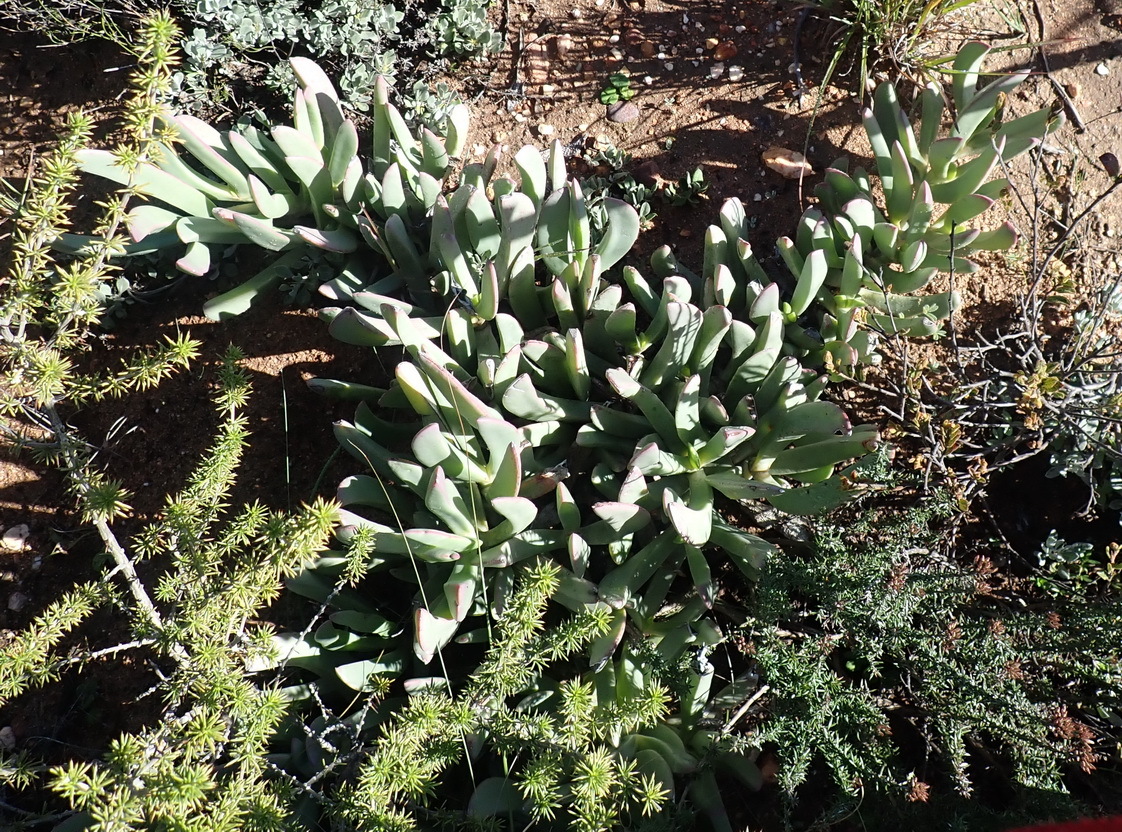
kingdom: Plantae
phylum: Tracheophyta
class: Magnoliopsida
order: Caryophyllales
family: Aizoaceae
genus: Carpobrotus
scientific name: Carpobrotus mellei
